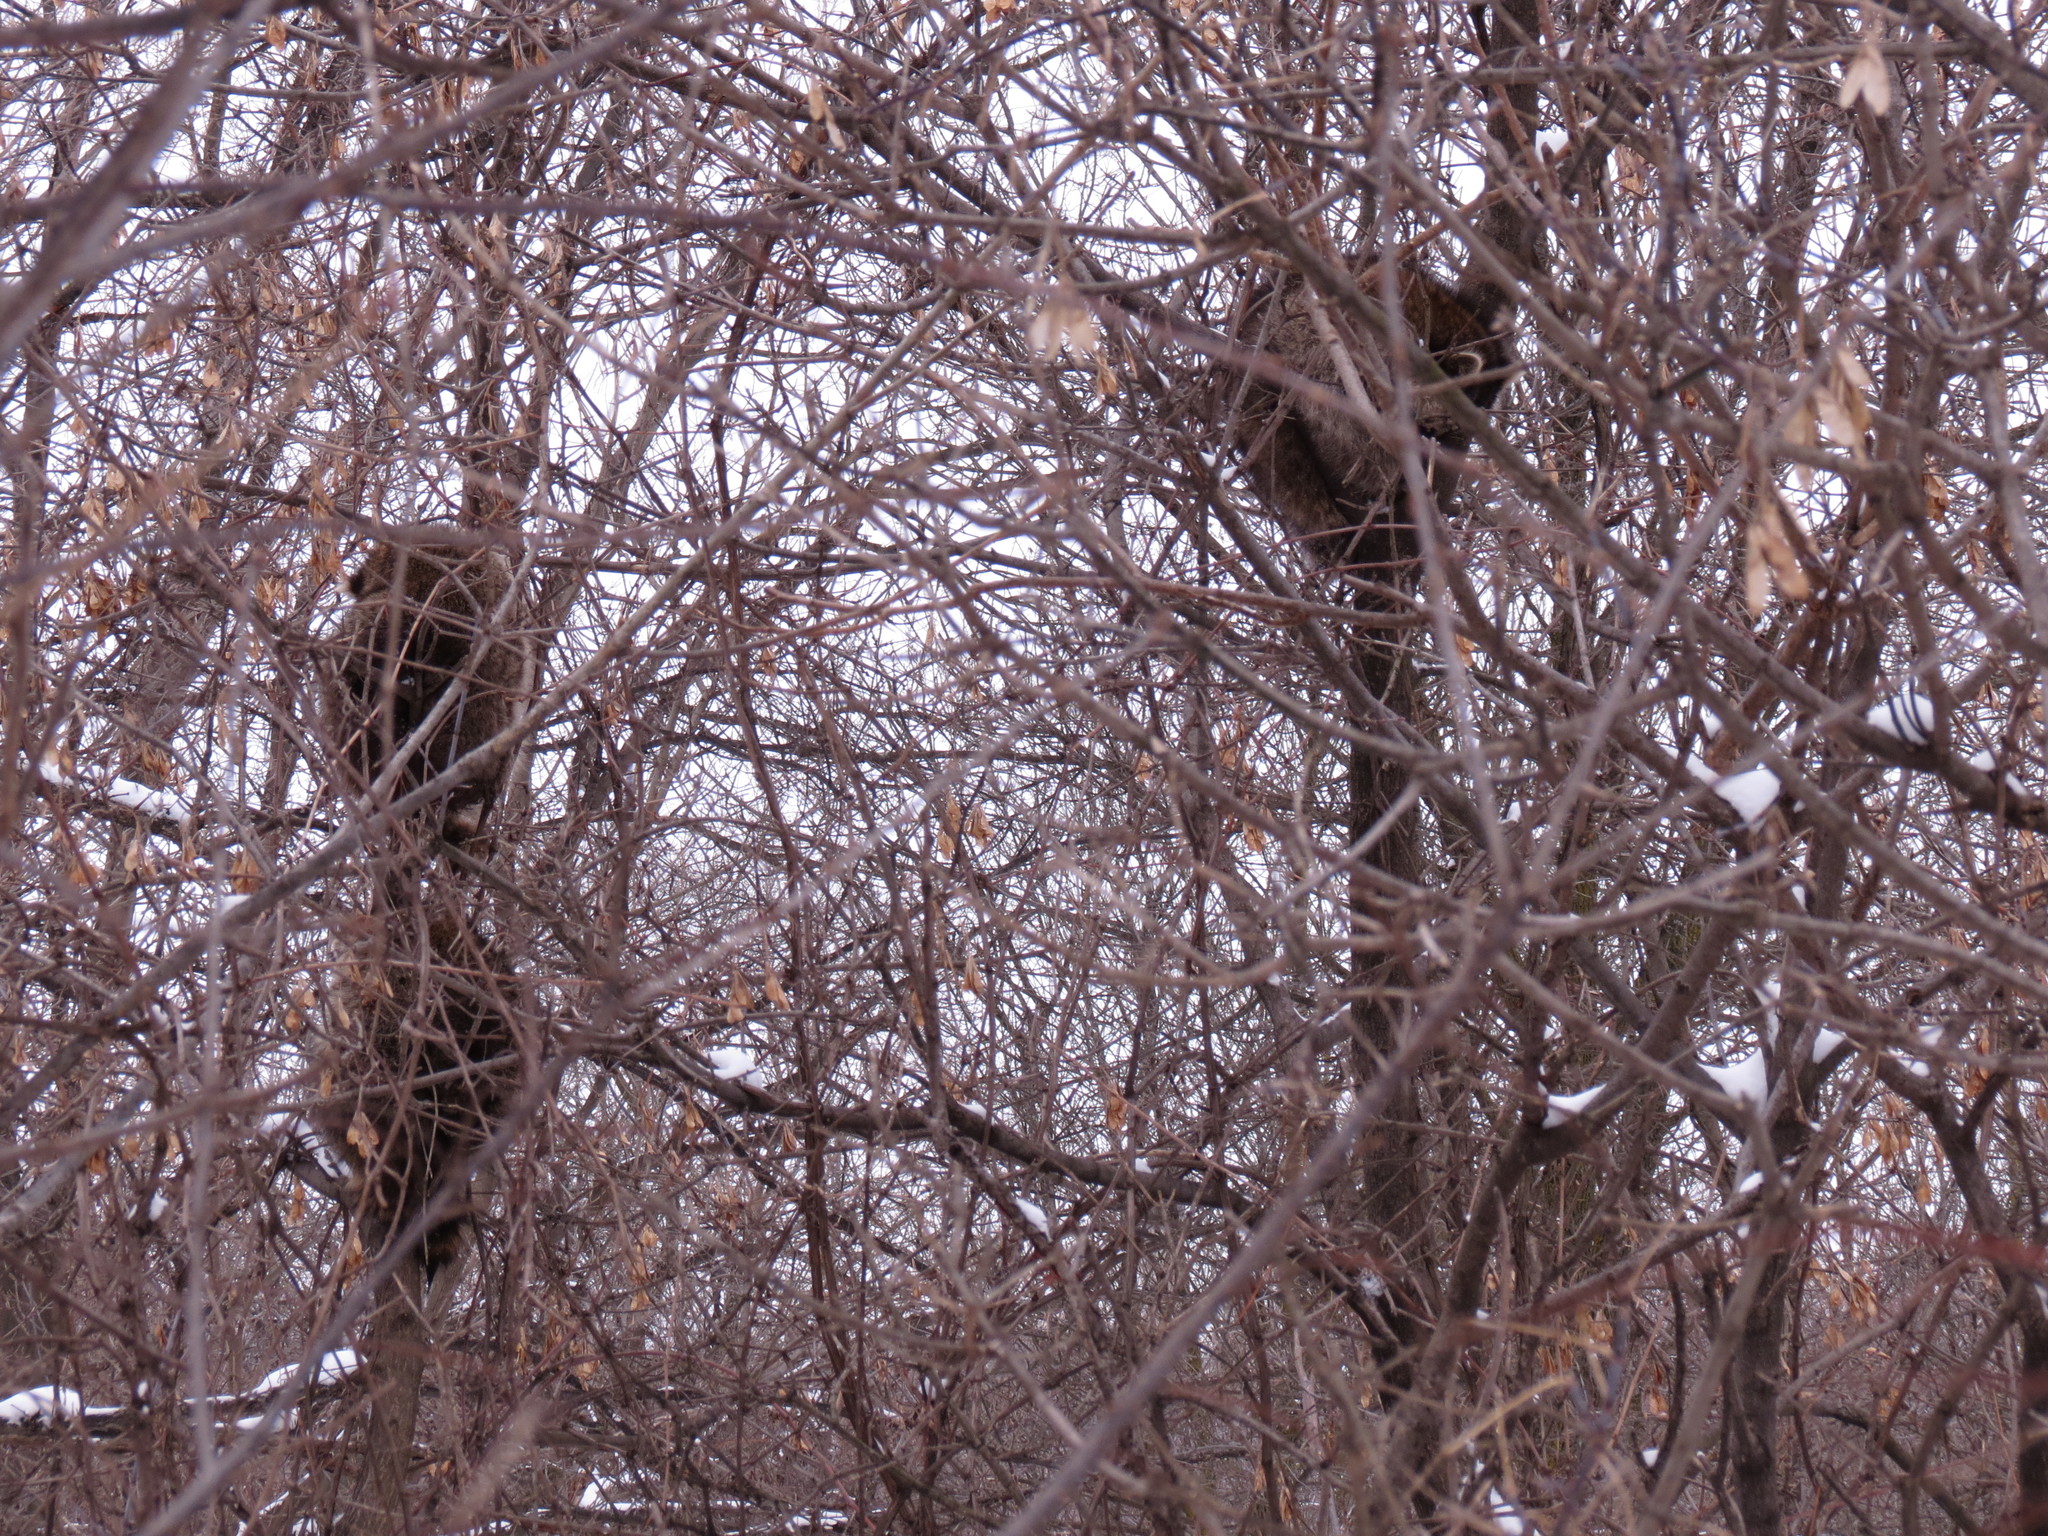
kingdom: Animalia
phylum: Chordata
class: Mammalia
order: Carnivora
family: Procyonidae
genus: Procyon
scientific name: Procyon lotor
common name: Raccoon
